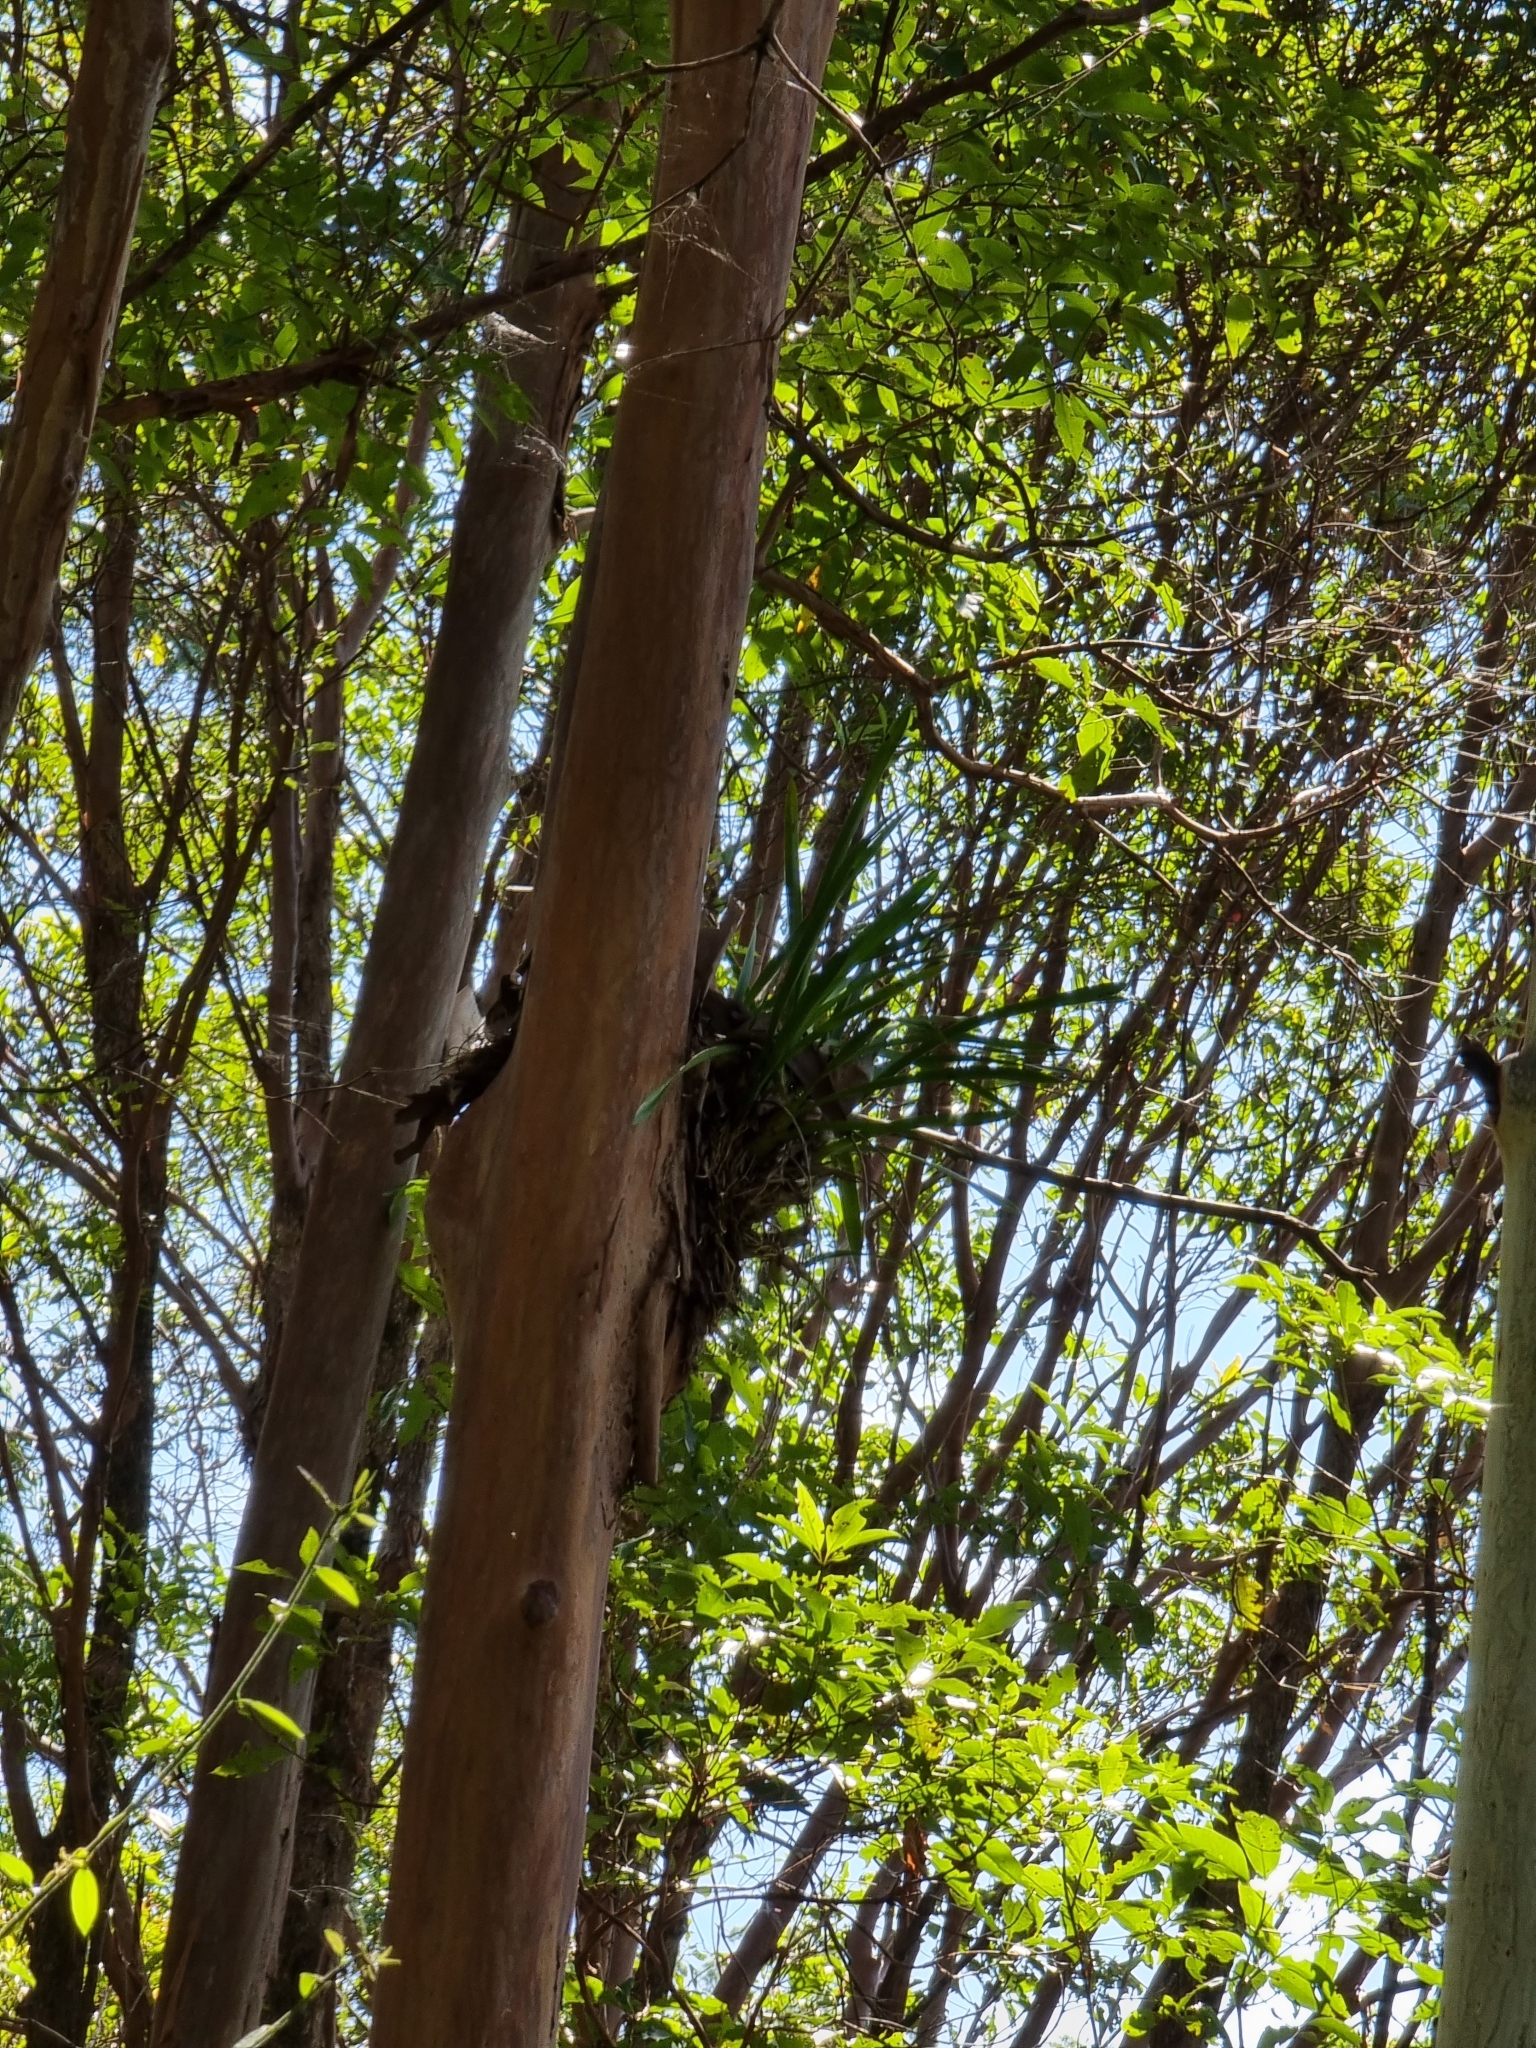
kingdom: Plantae
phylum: Tracheophyta
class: Liliopsida
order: Asparagales
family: Orchidaceae
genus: Cymbidium
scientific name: Cymbidium madidum
